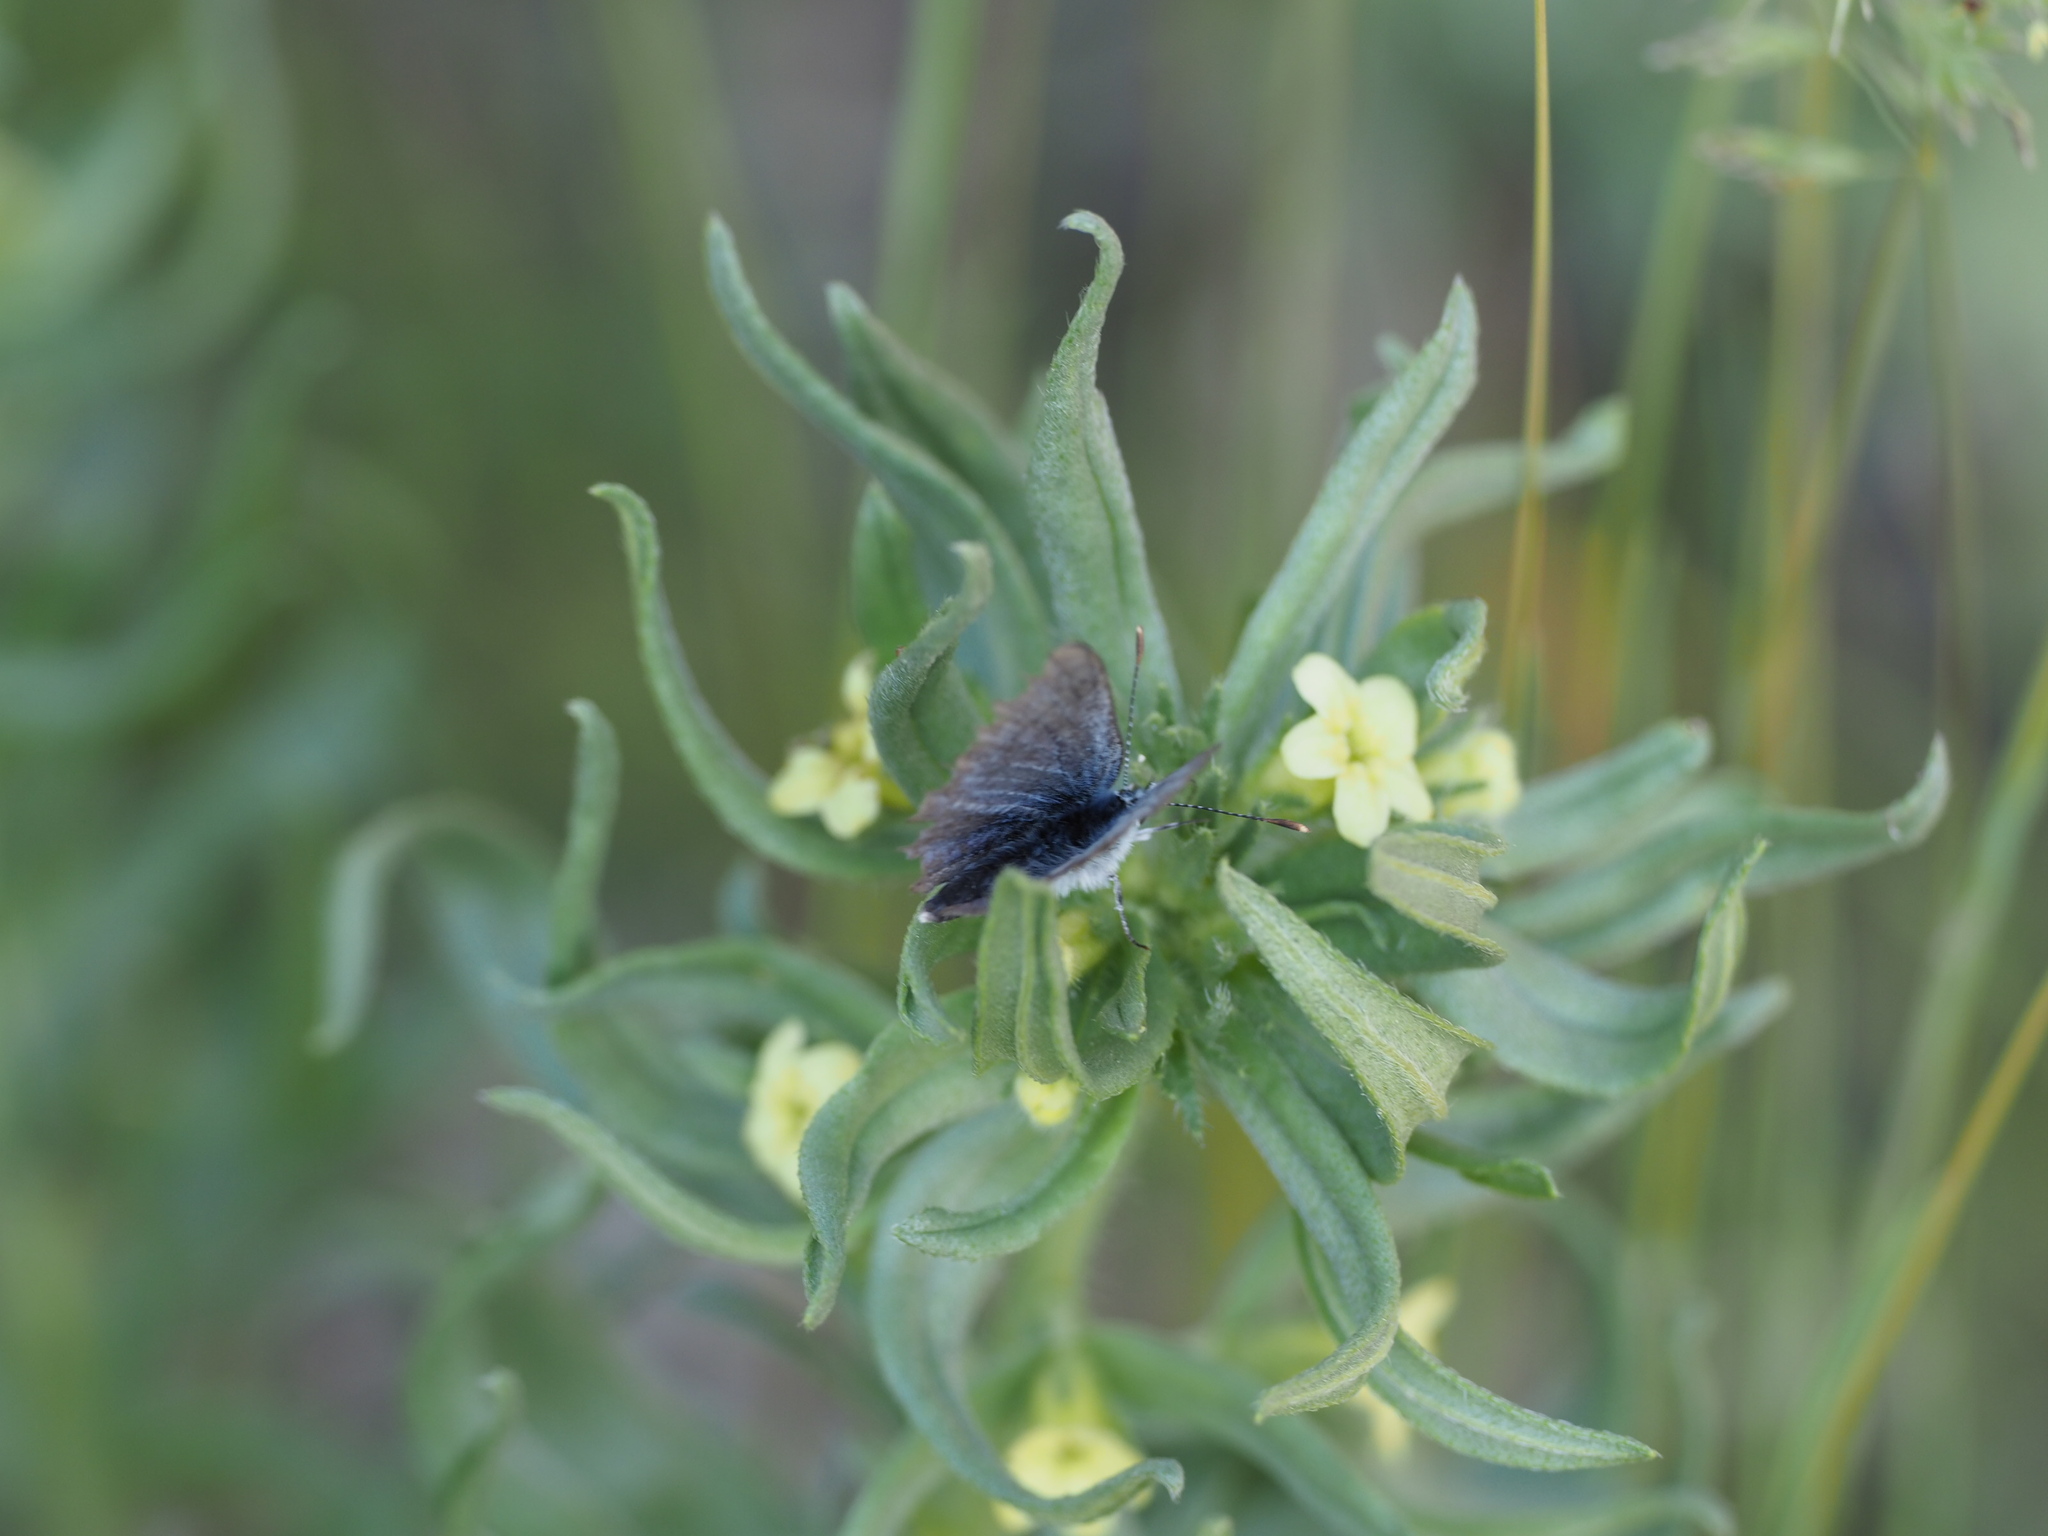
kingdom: Plantae
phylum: Tracheophyta
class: Magnoliopsida
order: Boraginales
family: Boraginaceae
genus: Lithospermum
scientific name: Lithospermum ruderale
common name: Western gromwell
